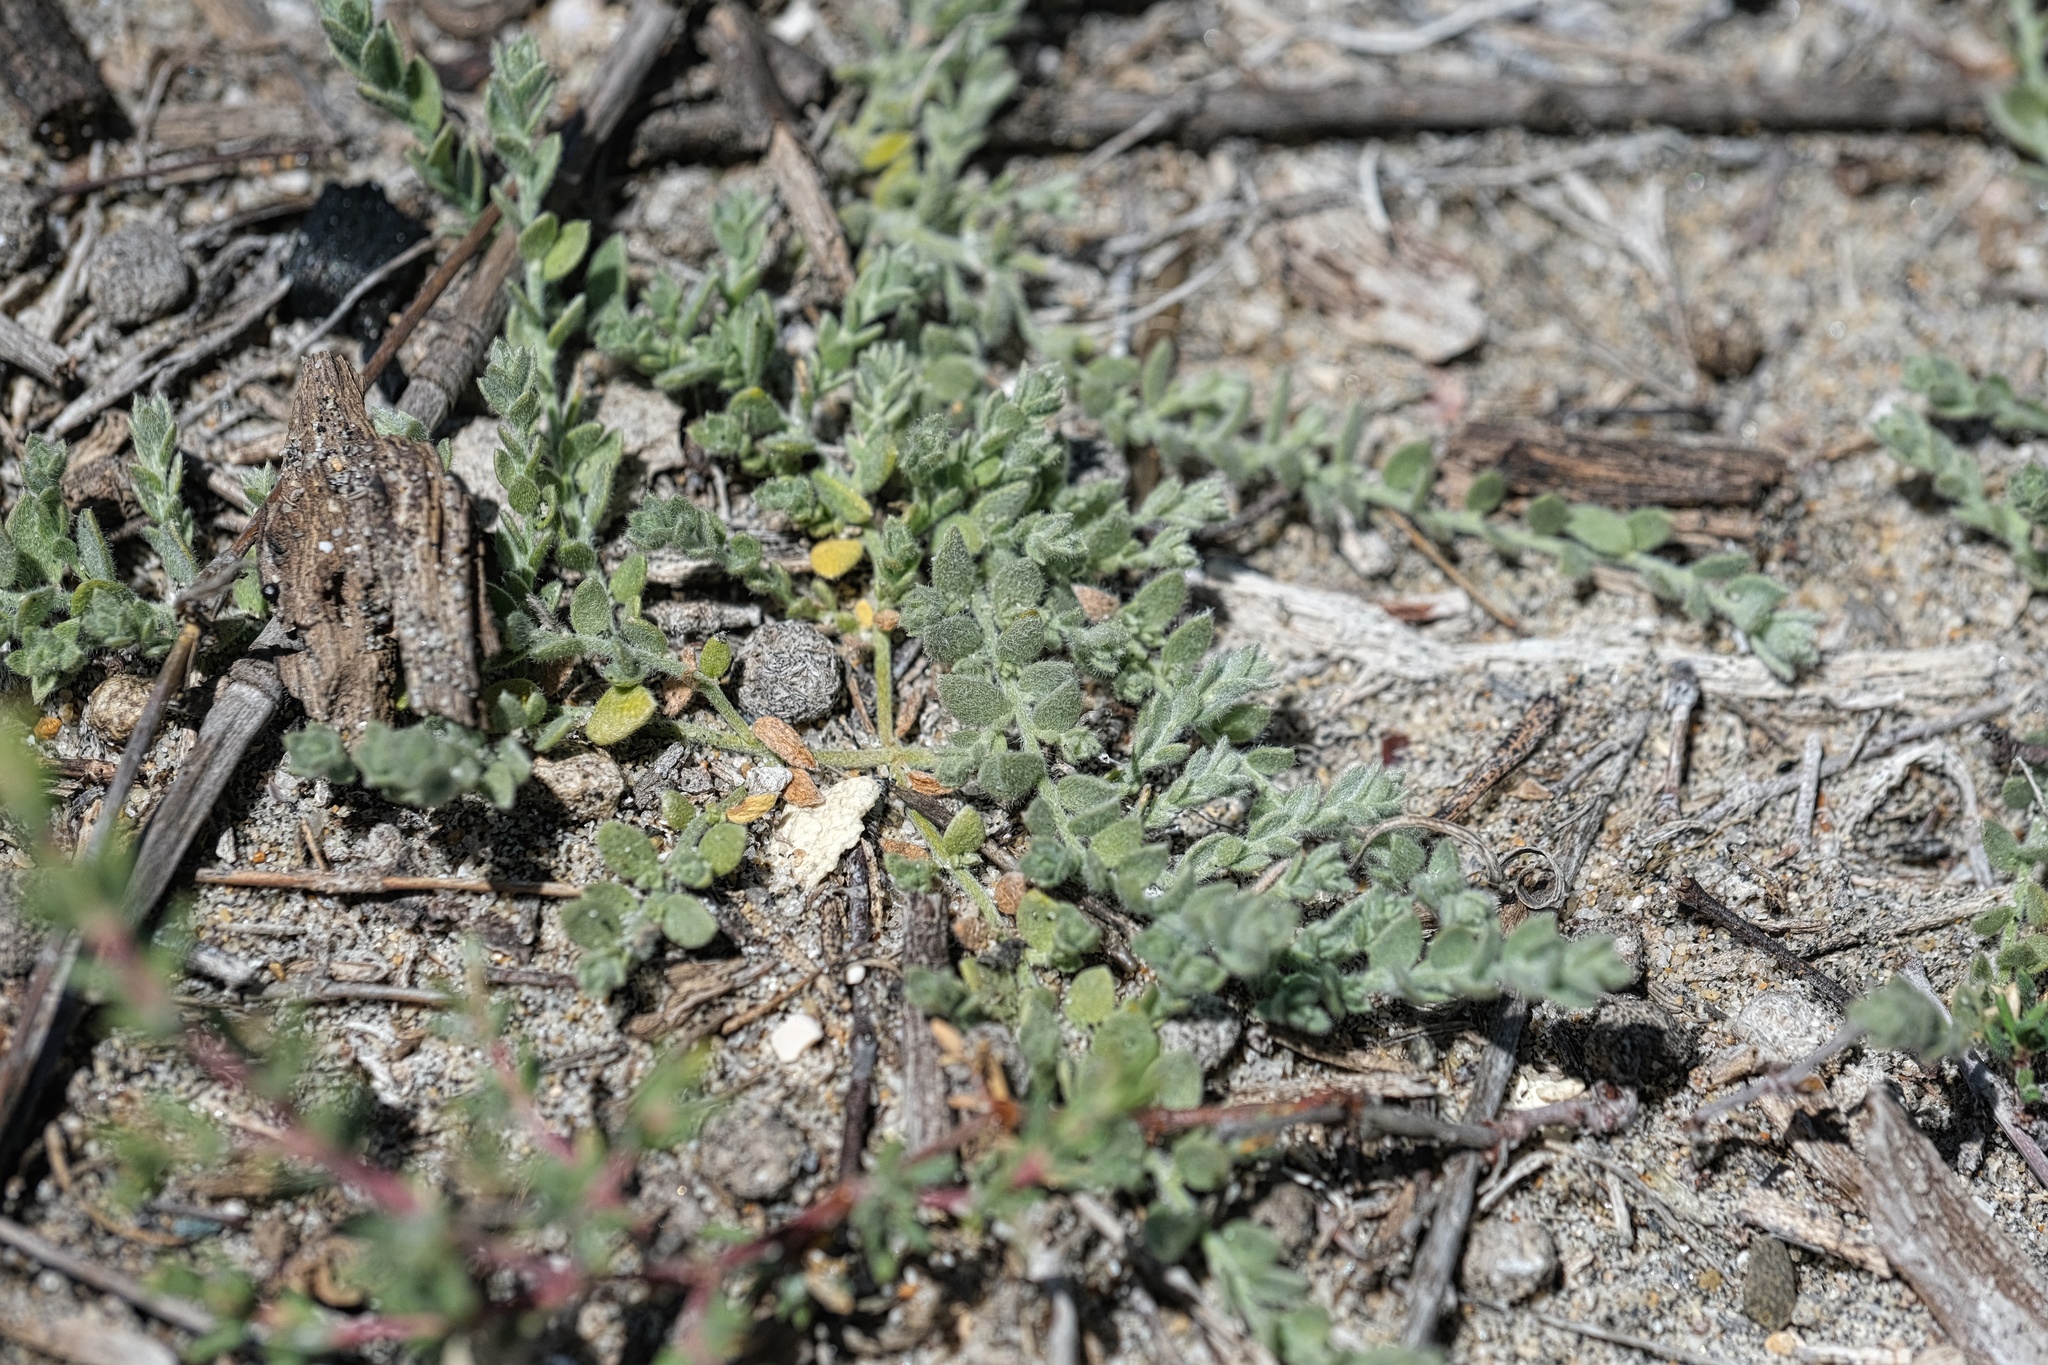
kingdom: Plantae
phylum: Tracheophyta
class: Magnoliopsida
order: Solanales
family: Convolvulaceae
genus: Cressa
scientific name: Cressa truxillensis
